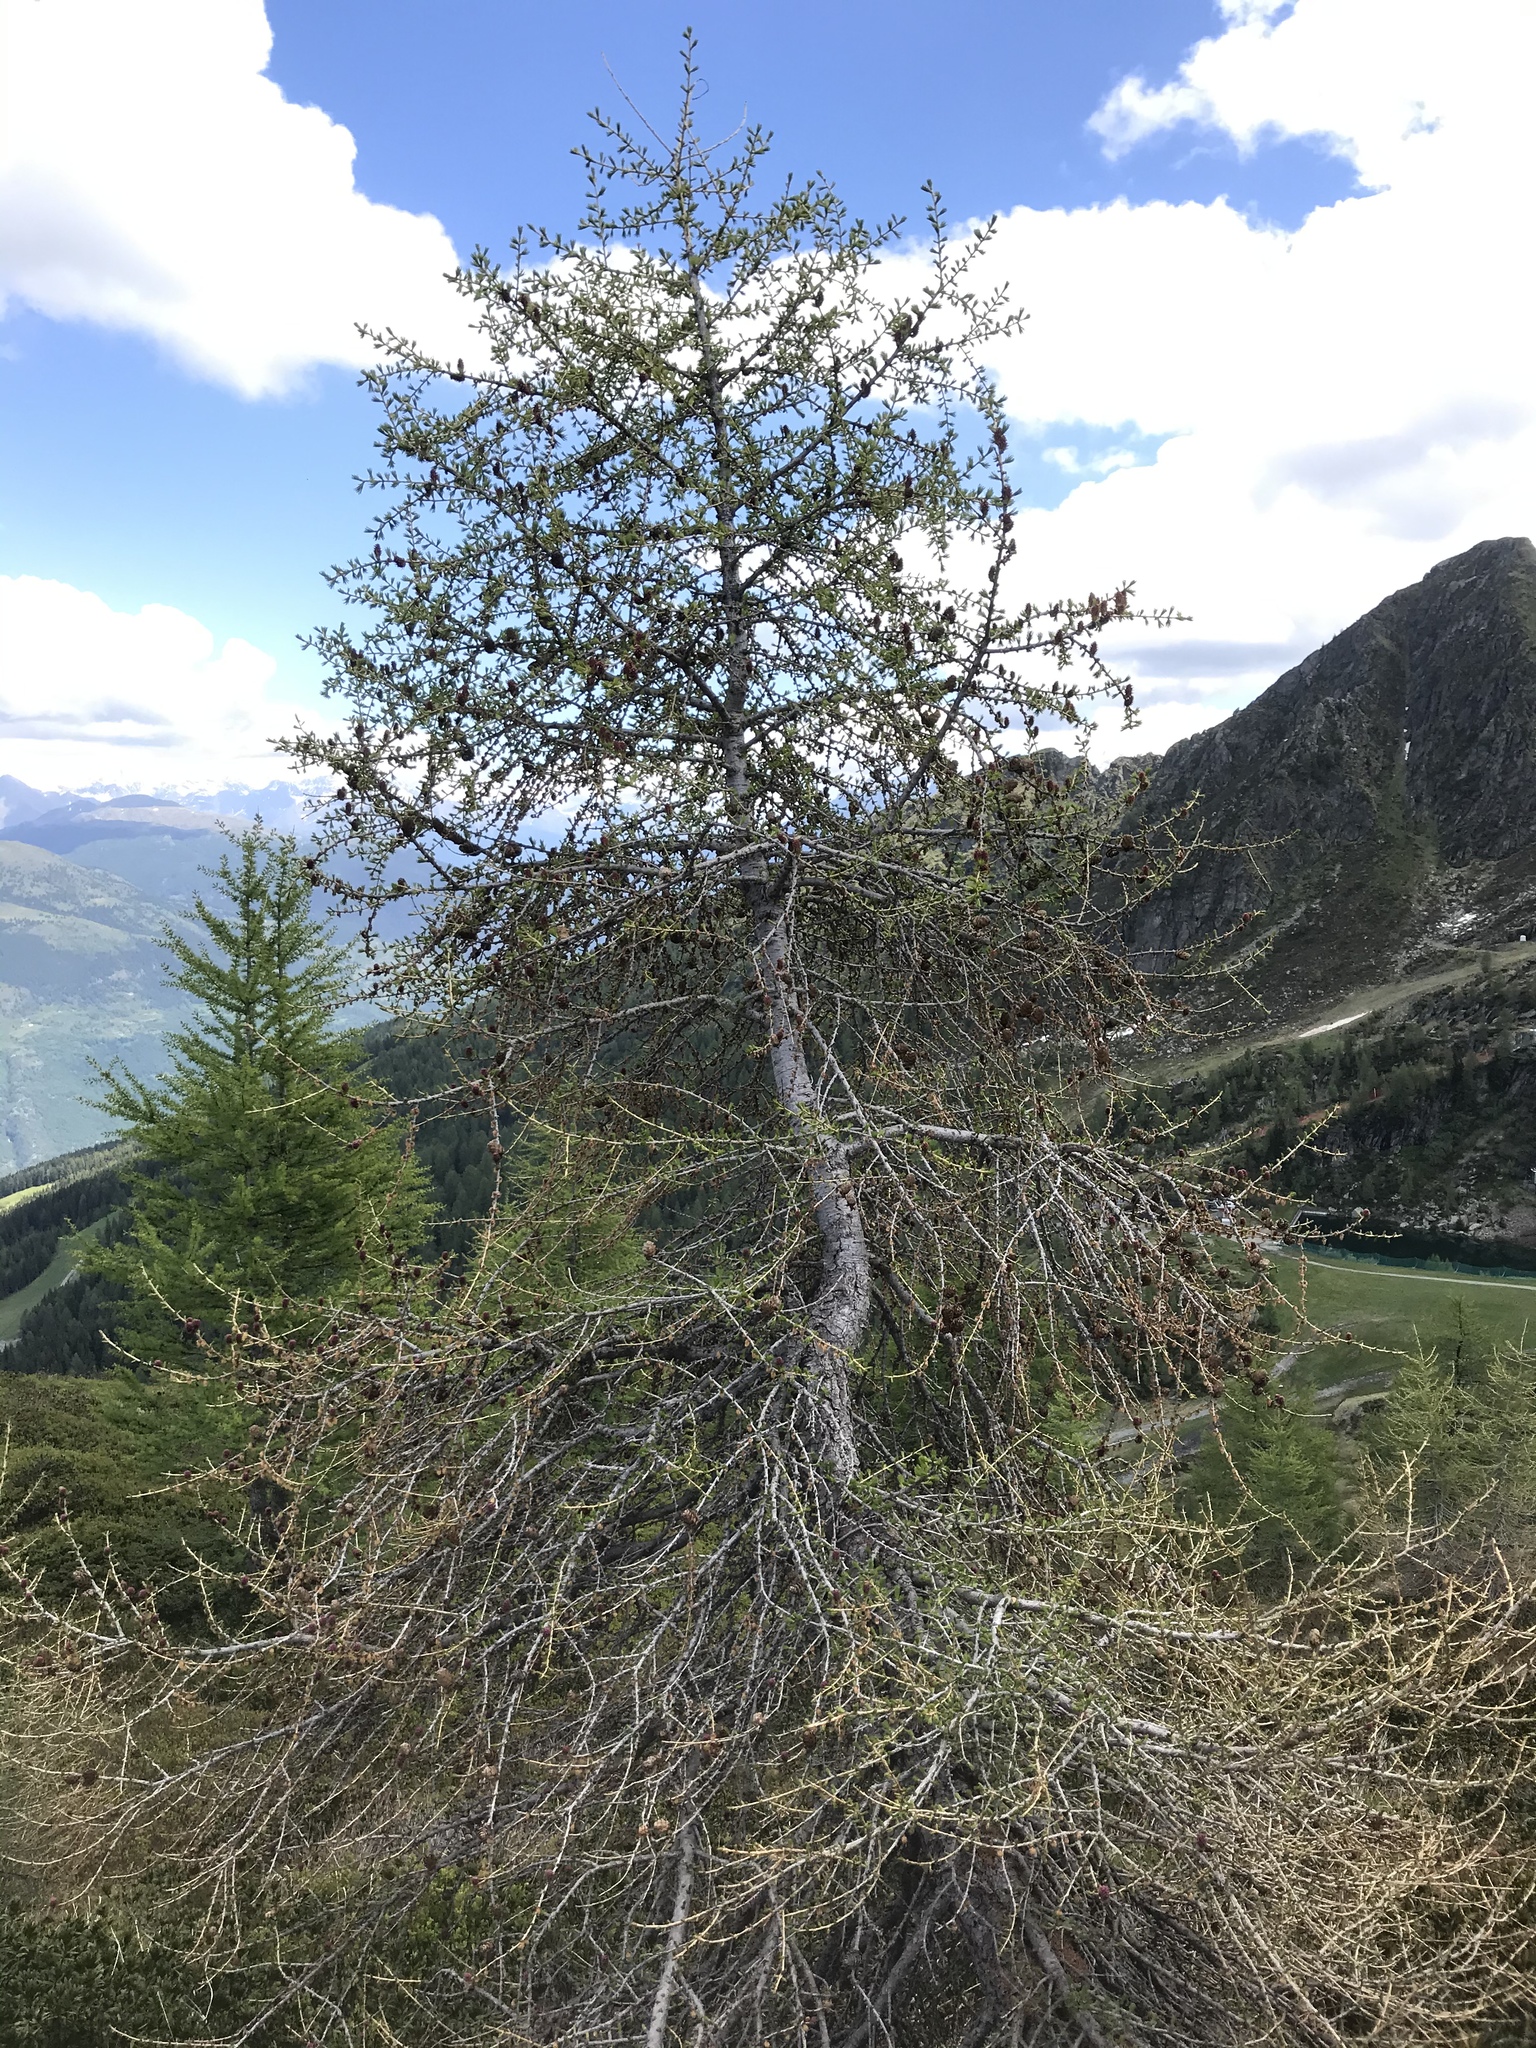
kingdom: Plantae
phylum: Tracheophyta
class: Pinopsida
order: Pinales
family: Pinaceae
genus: Larix
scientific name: Larix decidua
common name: European larch
